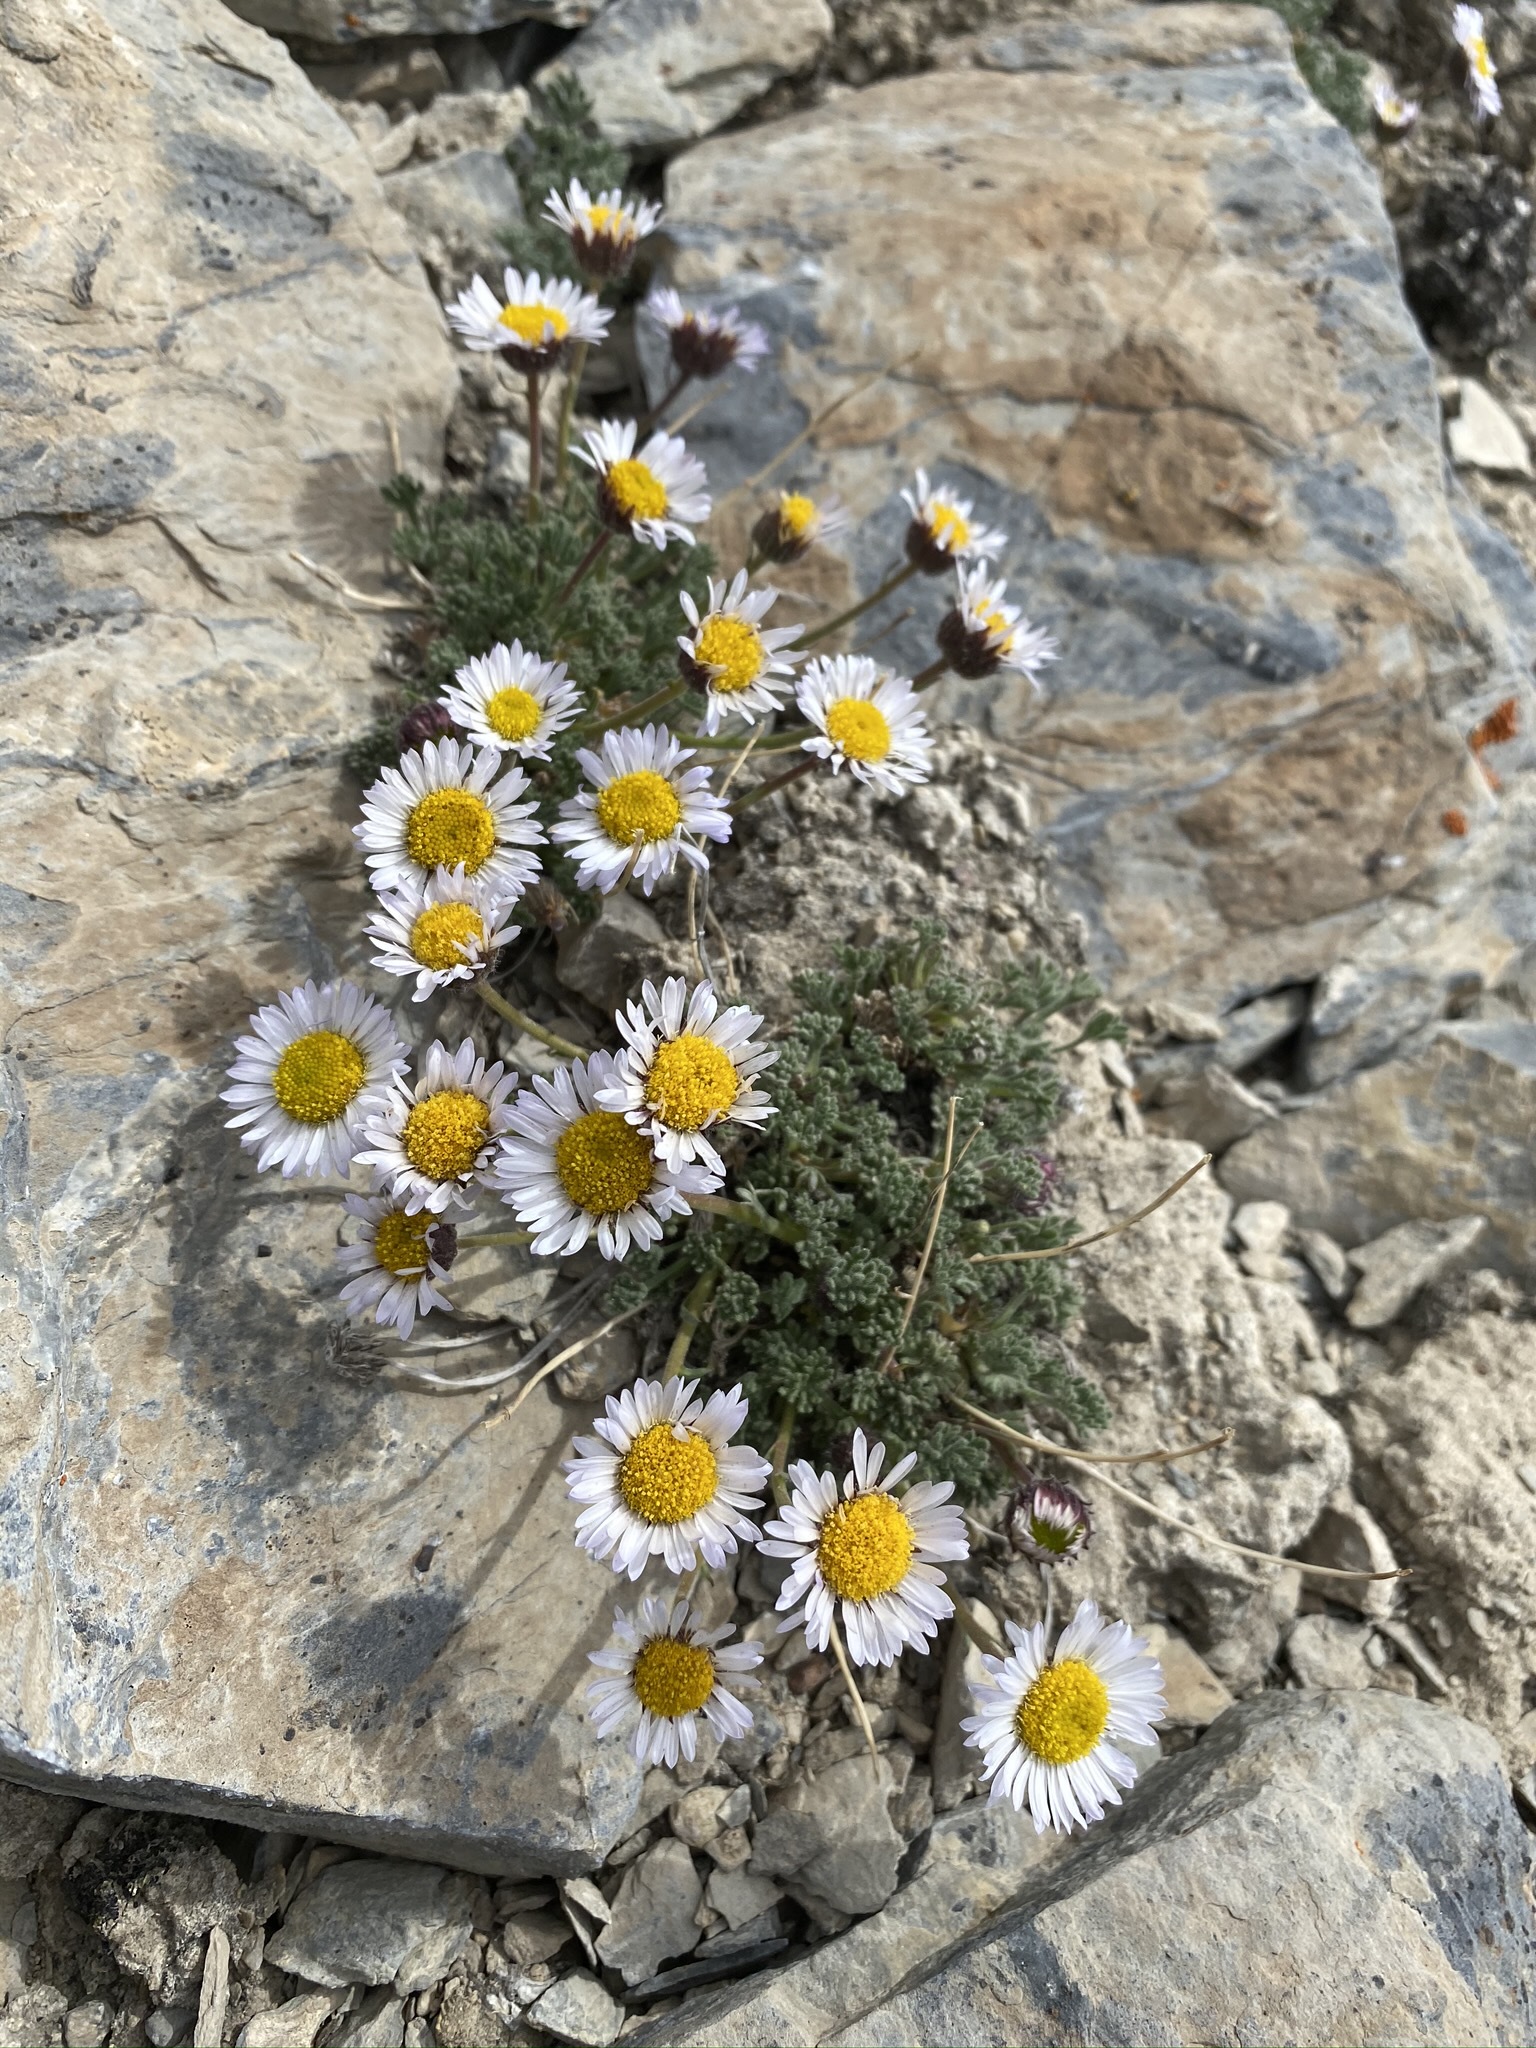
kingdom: Plantae
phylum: Tracheophyta
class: Magnoliopsida
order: Asterales
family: Asteraceae
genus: Erigeron
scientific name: Erigeron compositus
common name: Dwarf mountain fleabane
